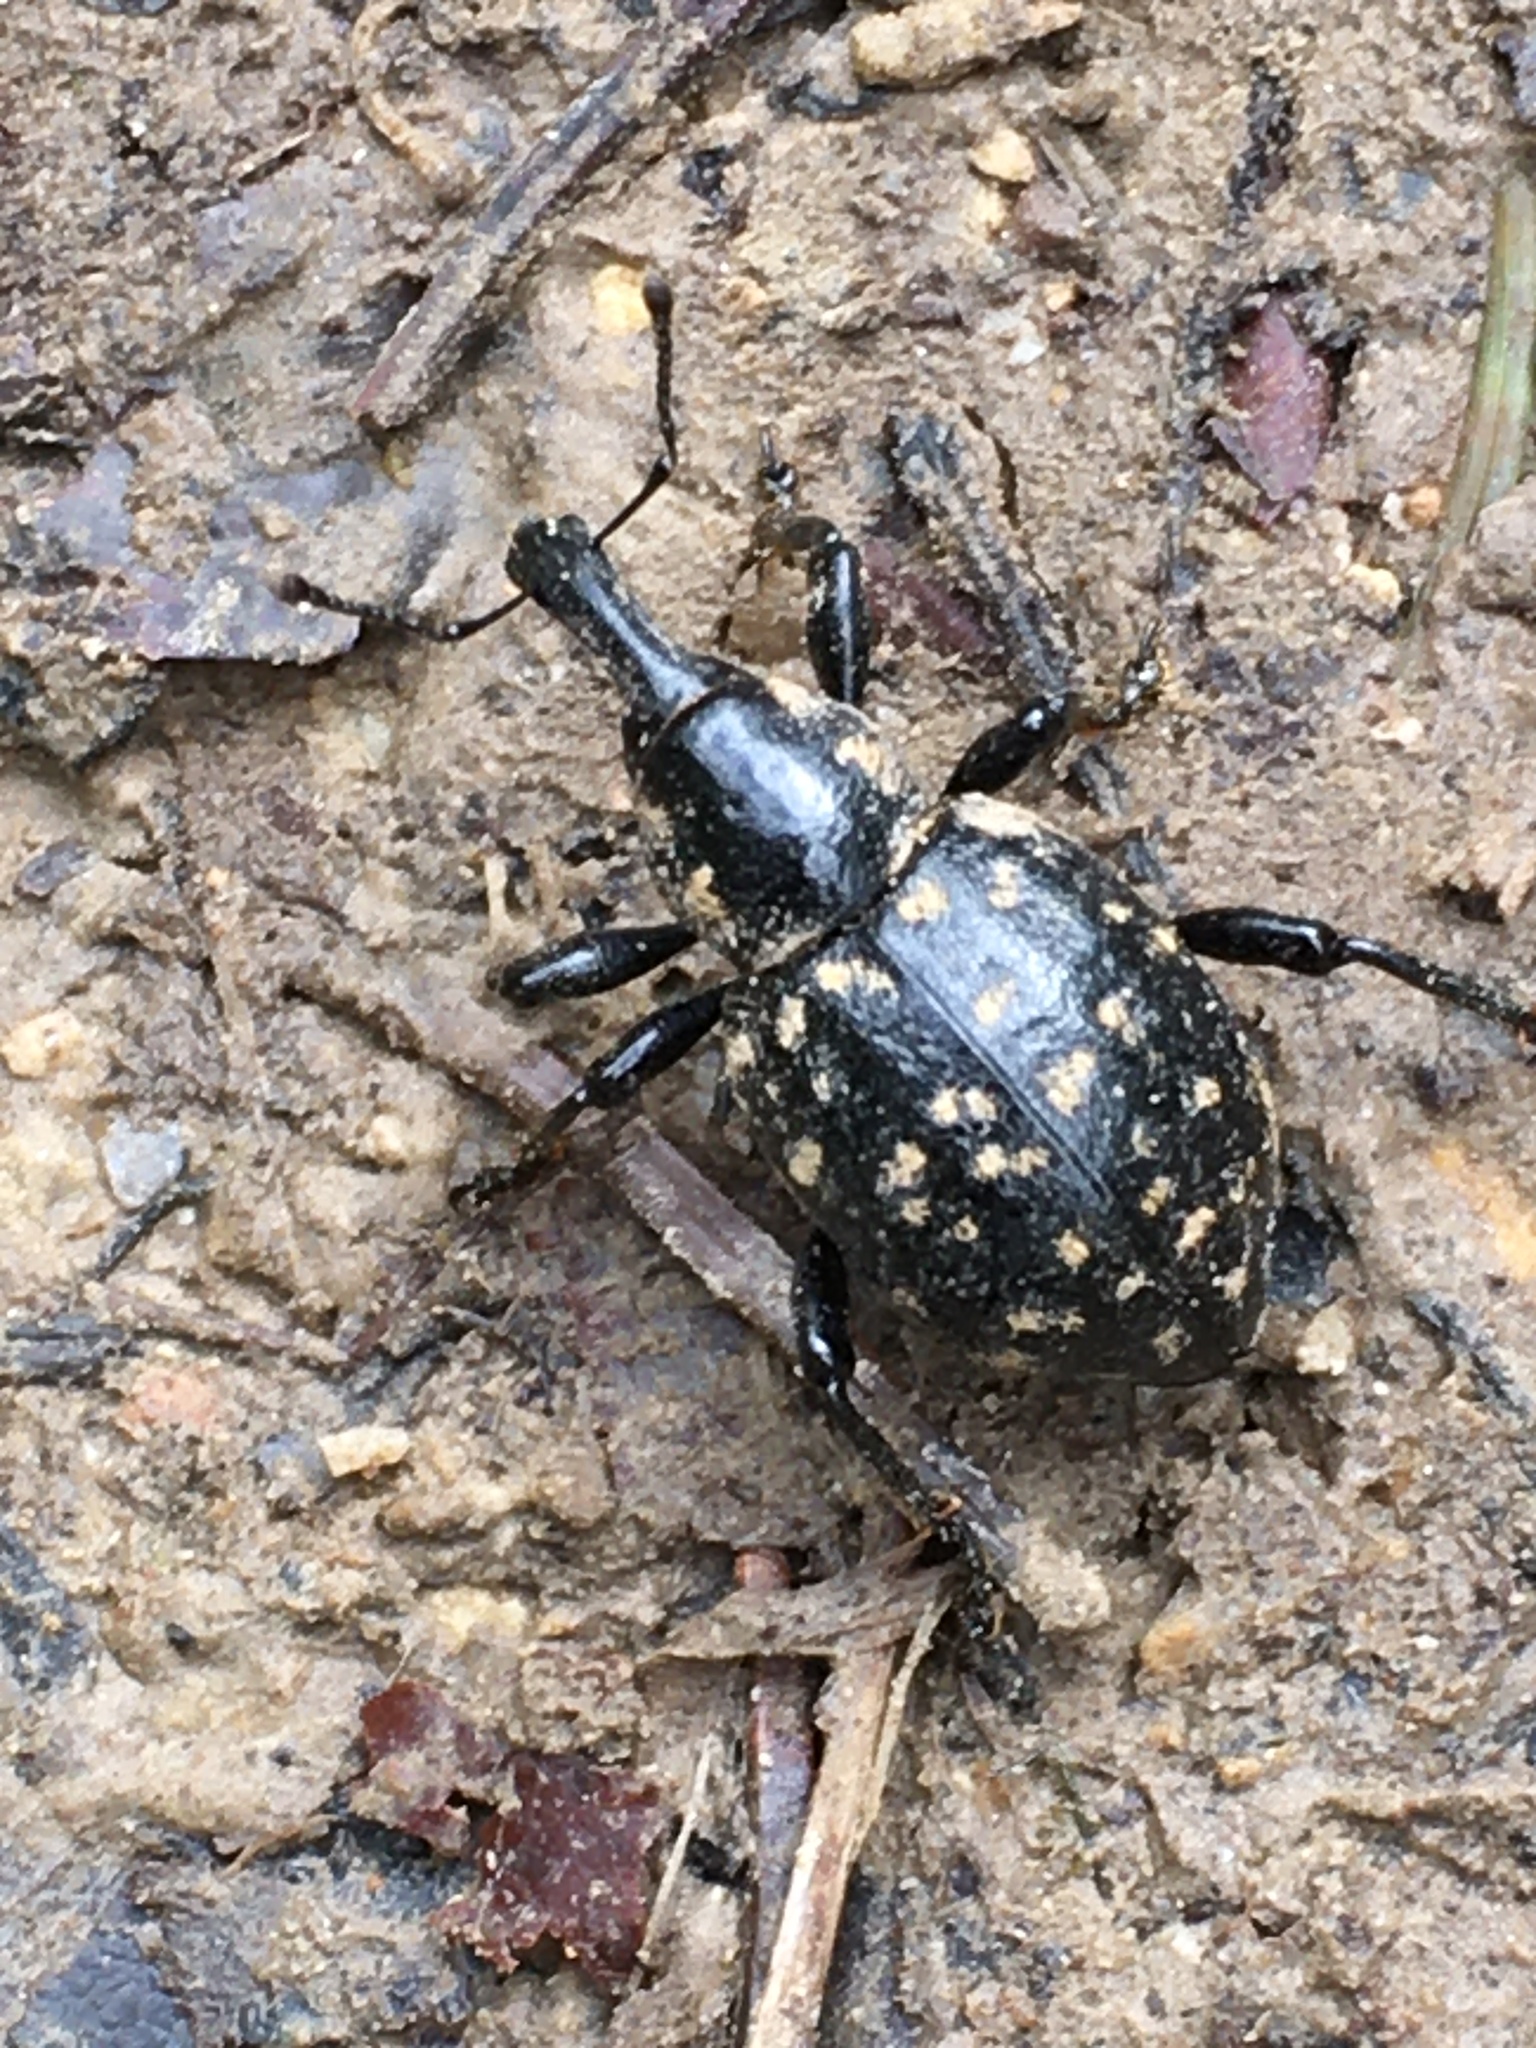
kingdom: Animalia
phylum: Arthropoda
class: Insecta
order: Coleoptera
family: Curculionidae
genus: Liparus
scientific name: Liparus glabrirostris
